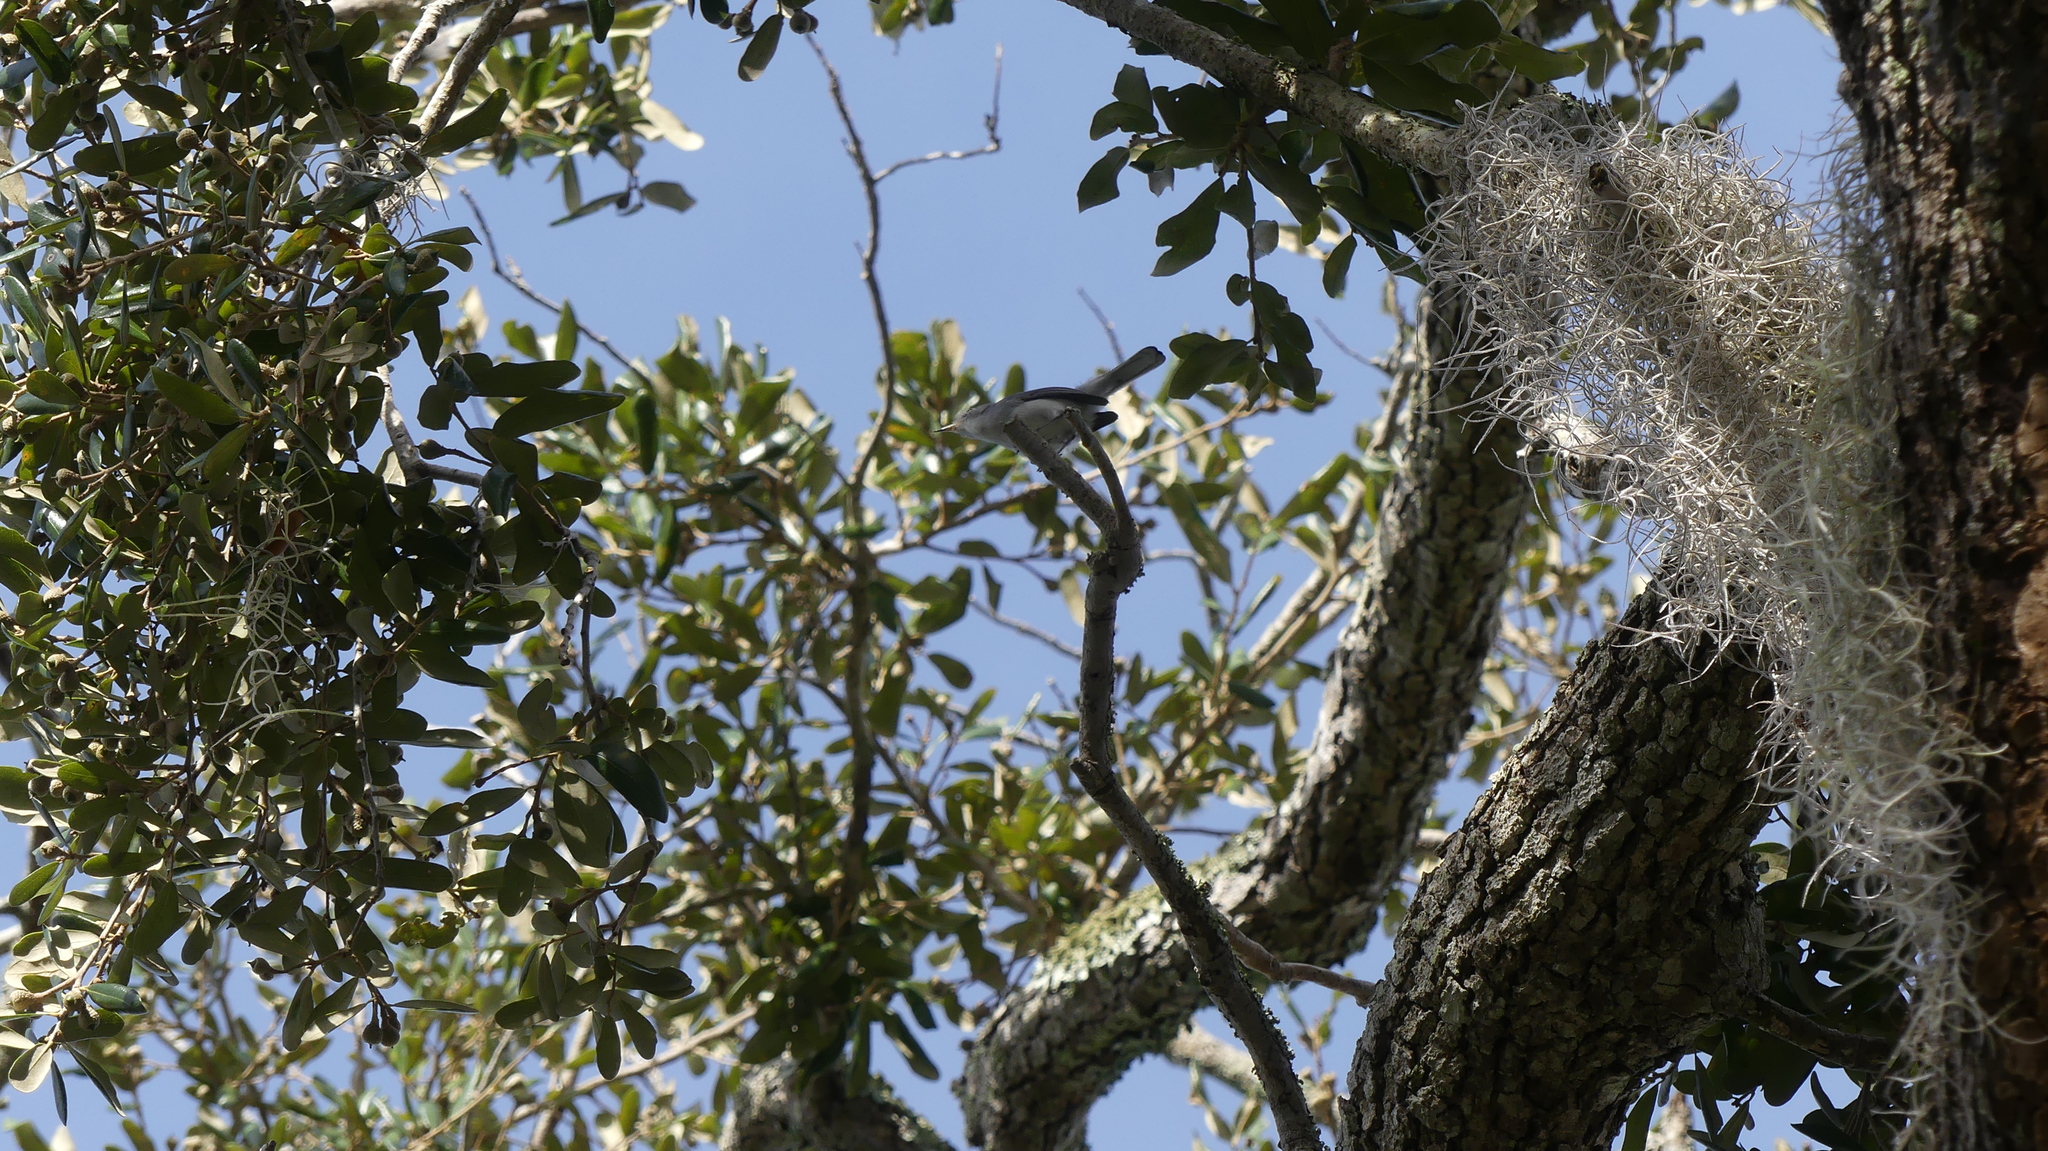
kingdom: Animalia
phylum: Chordata
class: Aves
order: Passeriformes
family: Polioptilidae
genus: Polioptila
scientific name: Polioptila caerulea
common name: Blue-gray gnatcatcher
